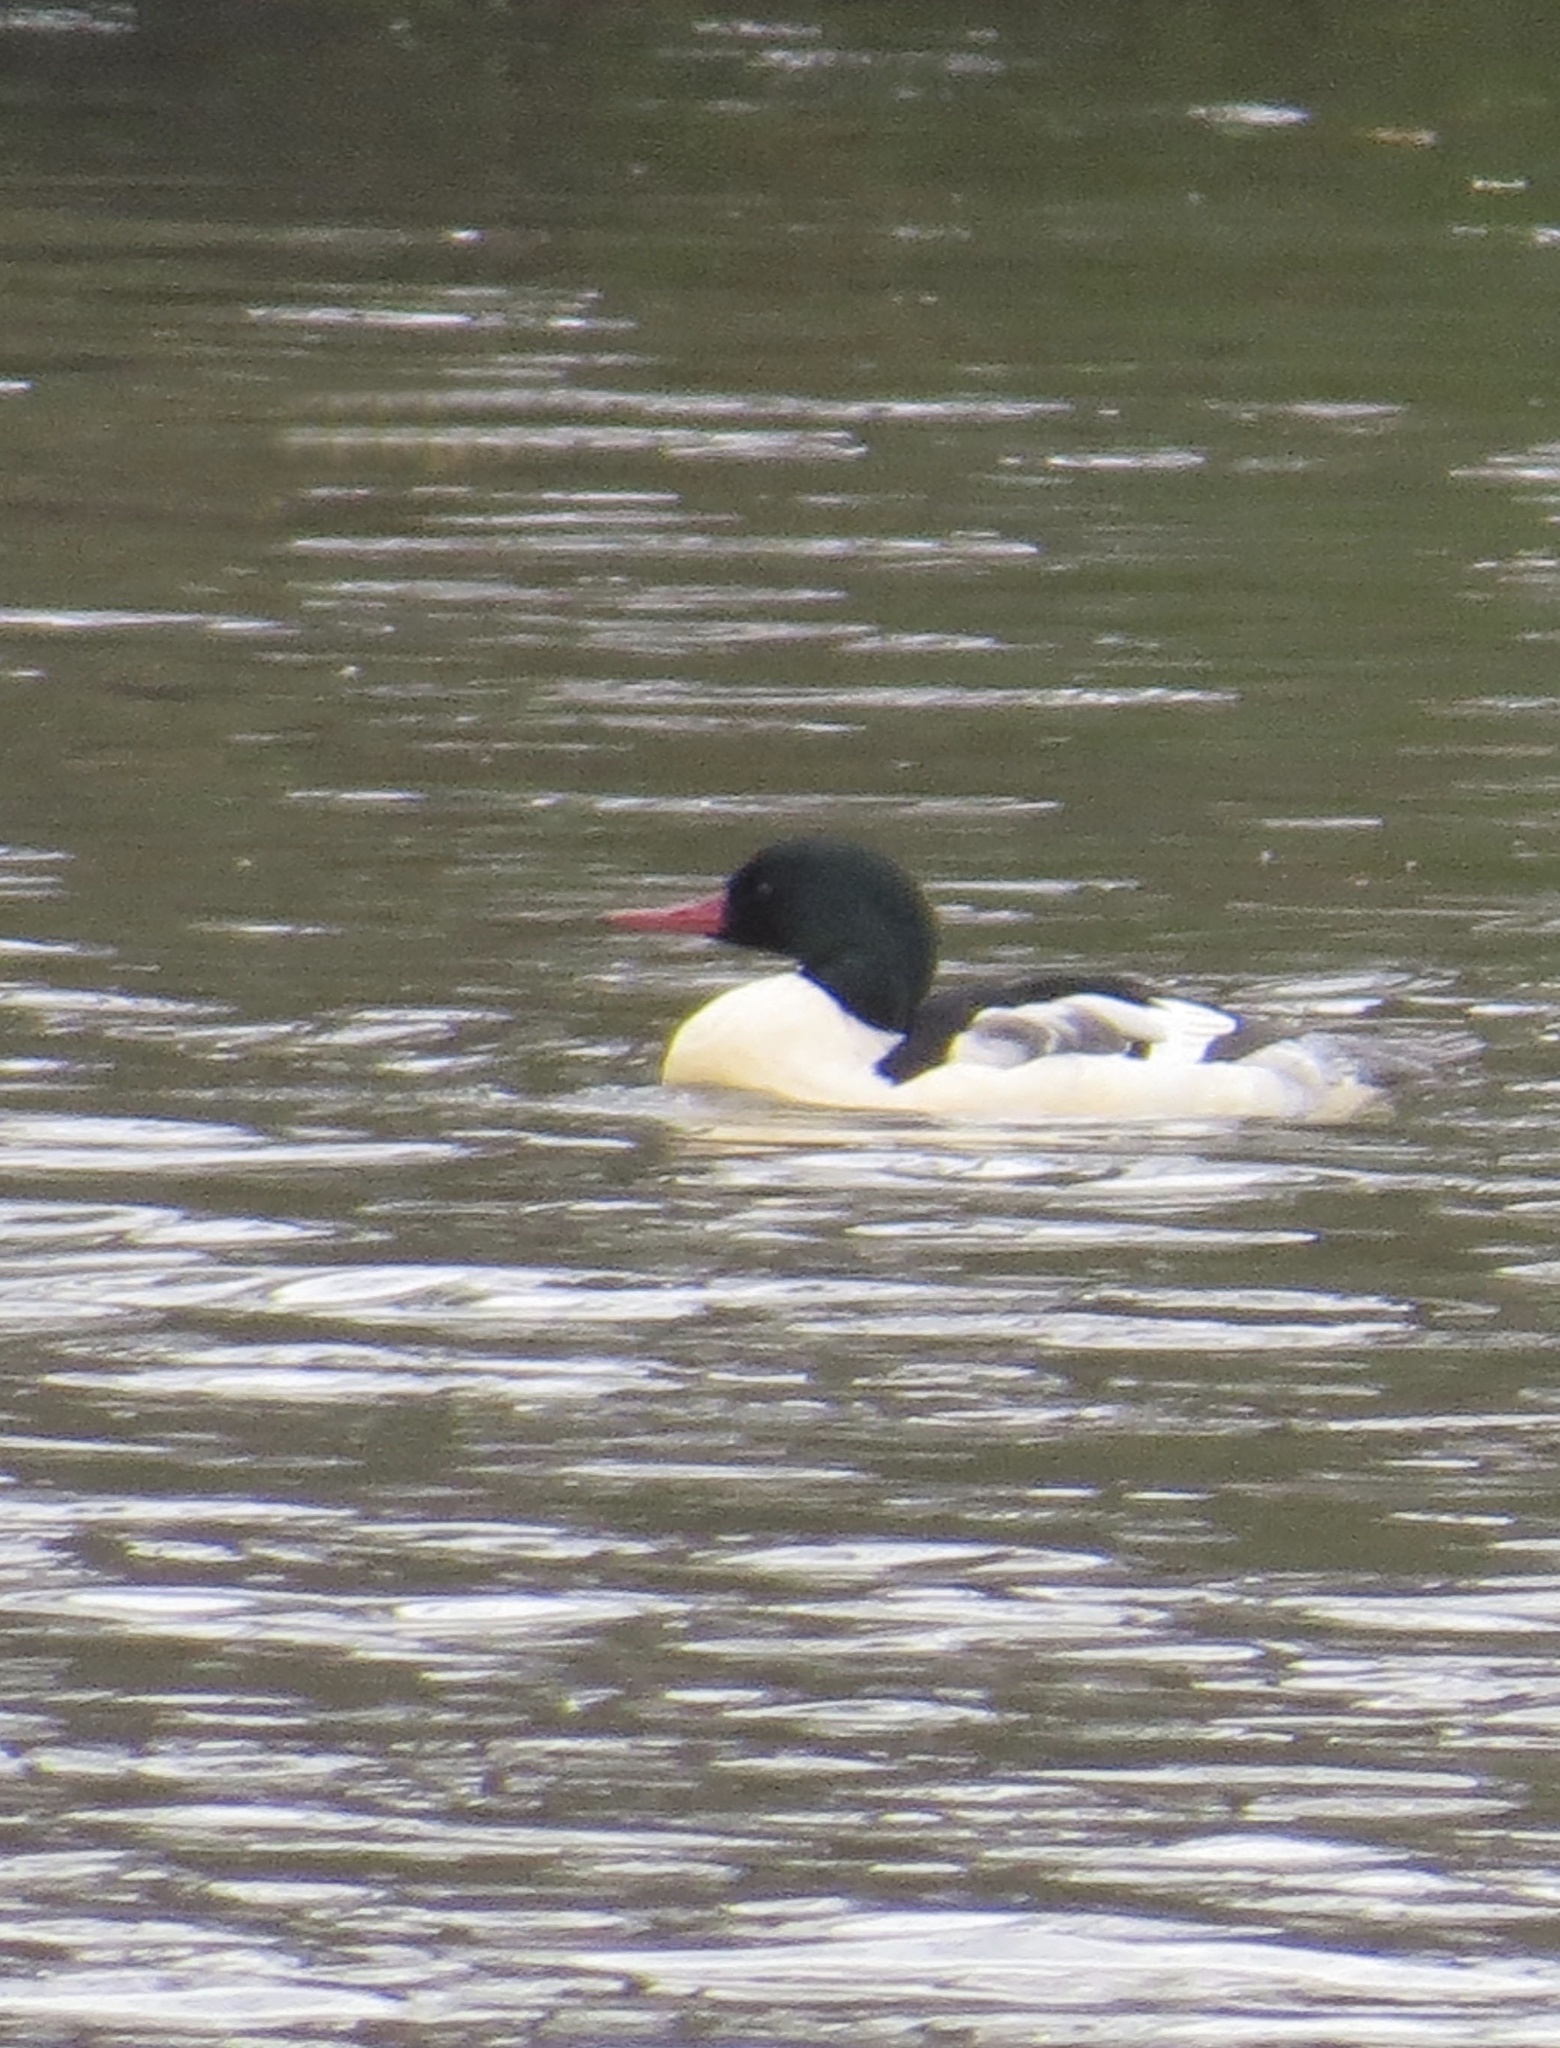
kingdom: Animalia
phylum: Chordata
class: Aves
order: Anseriformes
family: Anatidae
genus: Mergus
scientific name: Mergus merganser
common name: Common merganser
